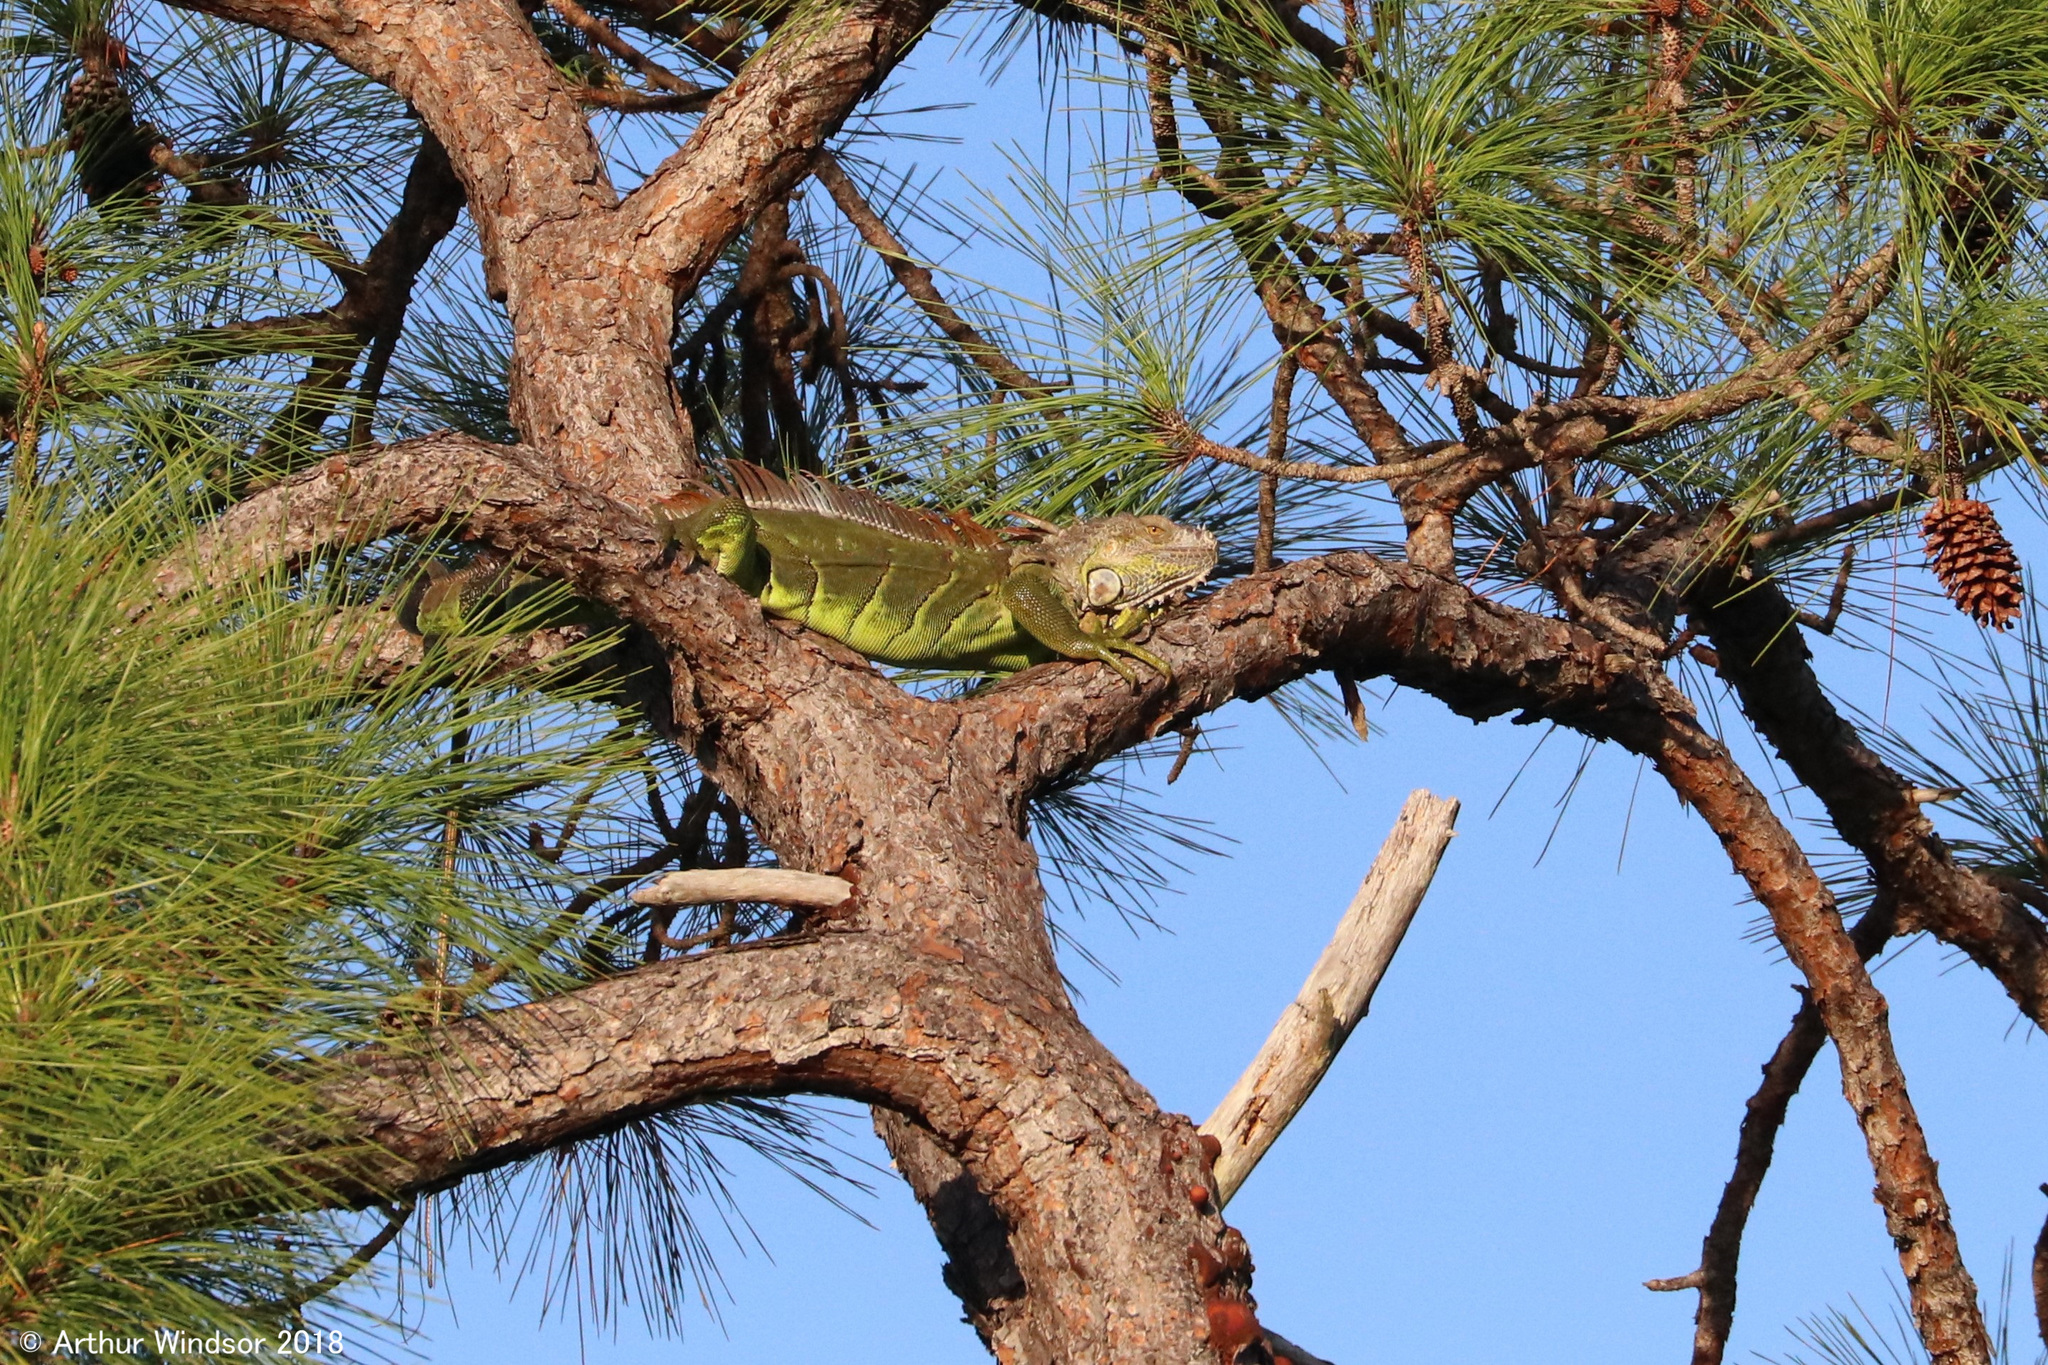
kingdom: Animalia
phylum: Chordata
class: Squamata
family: Iguanidae
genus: Iguana
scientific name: Iguana iguana
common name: Green iguana
